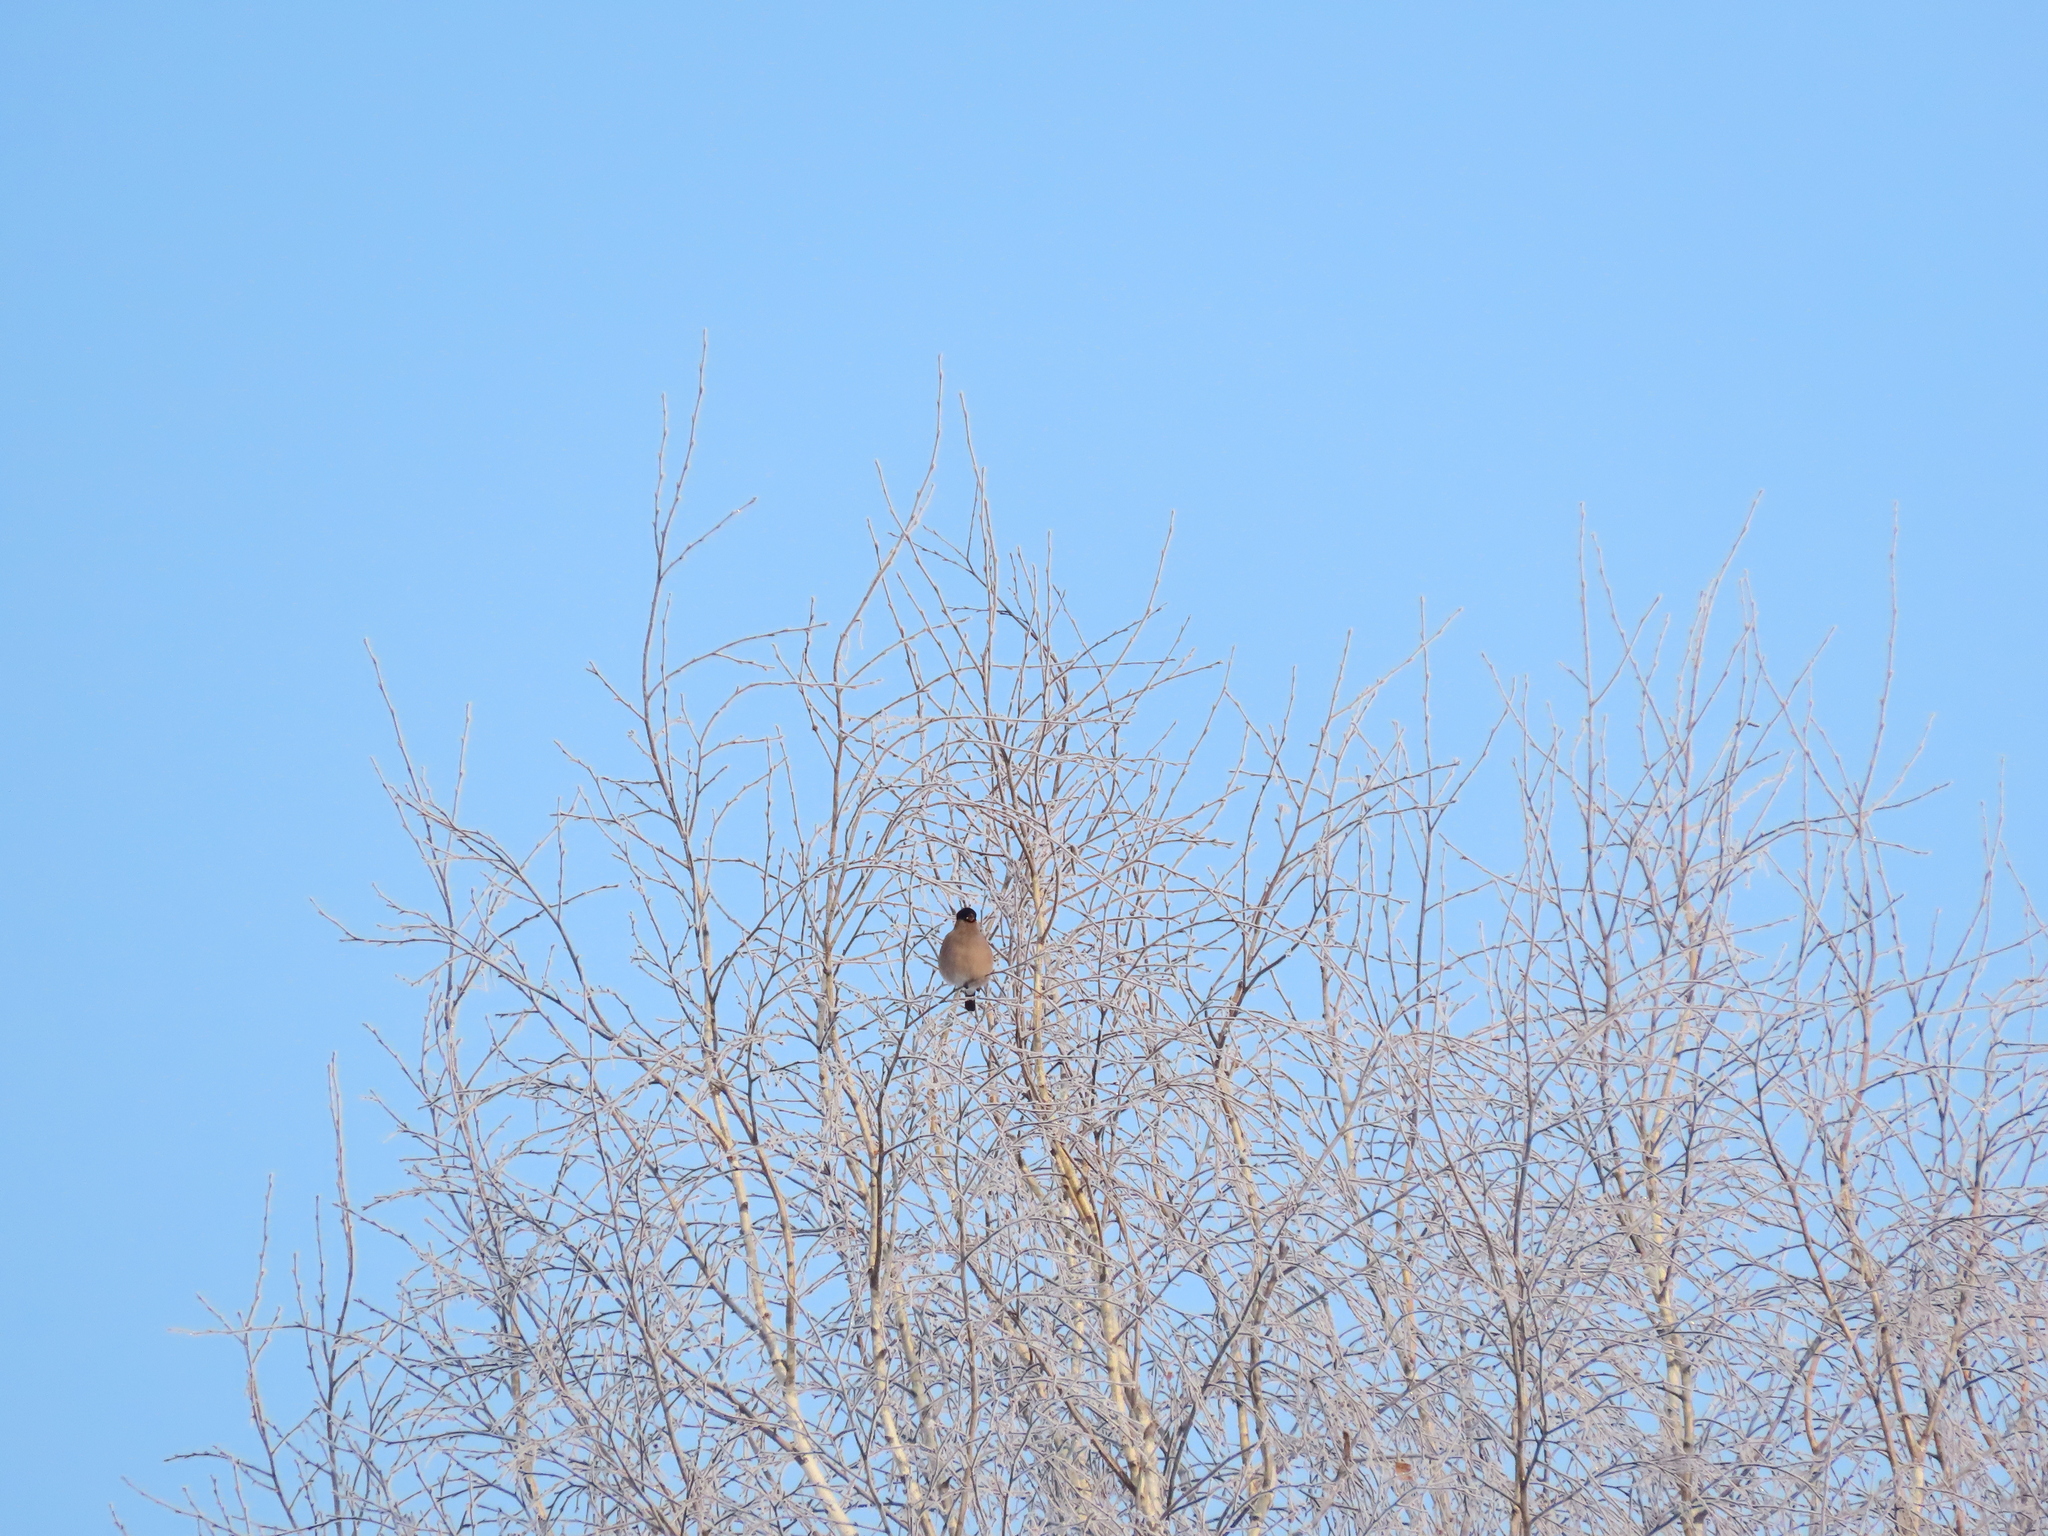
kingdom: Animalia
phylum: Chordata
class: Aves
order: Passeriformes
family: Fringillidae
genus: Pyrrhula
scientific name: Pyrrhula pyrrhula
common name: Eurasian bullfinch
